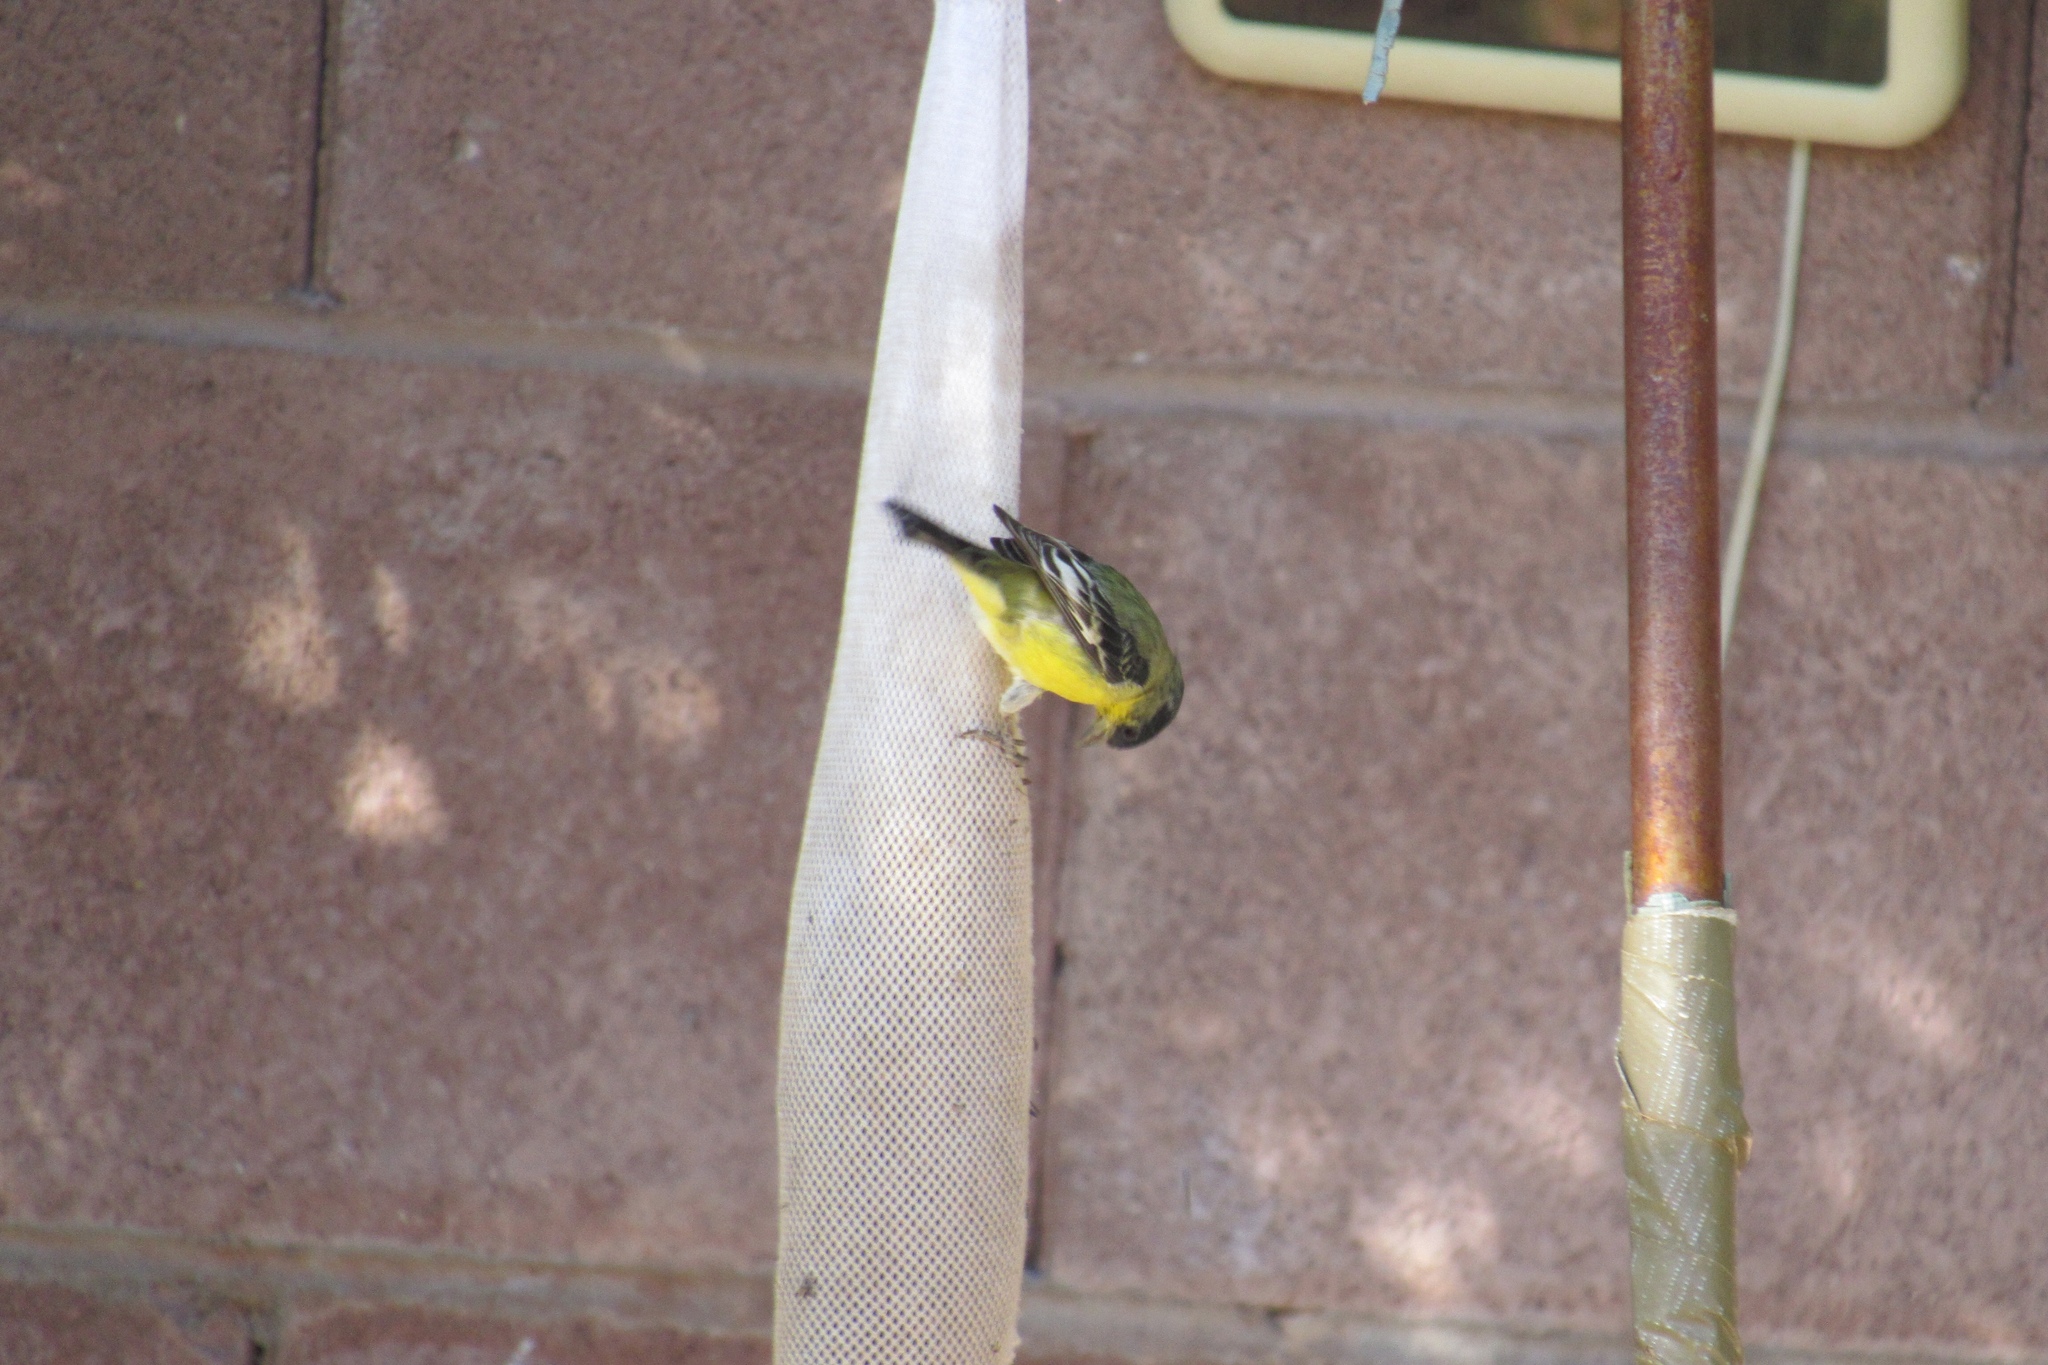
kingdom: Animalia
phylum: Chordata
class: Aves
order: Passeriformes
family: Fringillidae
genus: Spinus
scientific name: Spinus psaltria
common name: Lesser goldfinch
